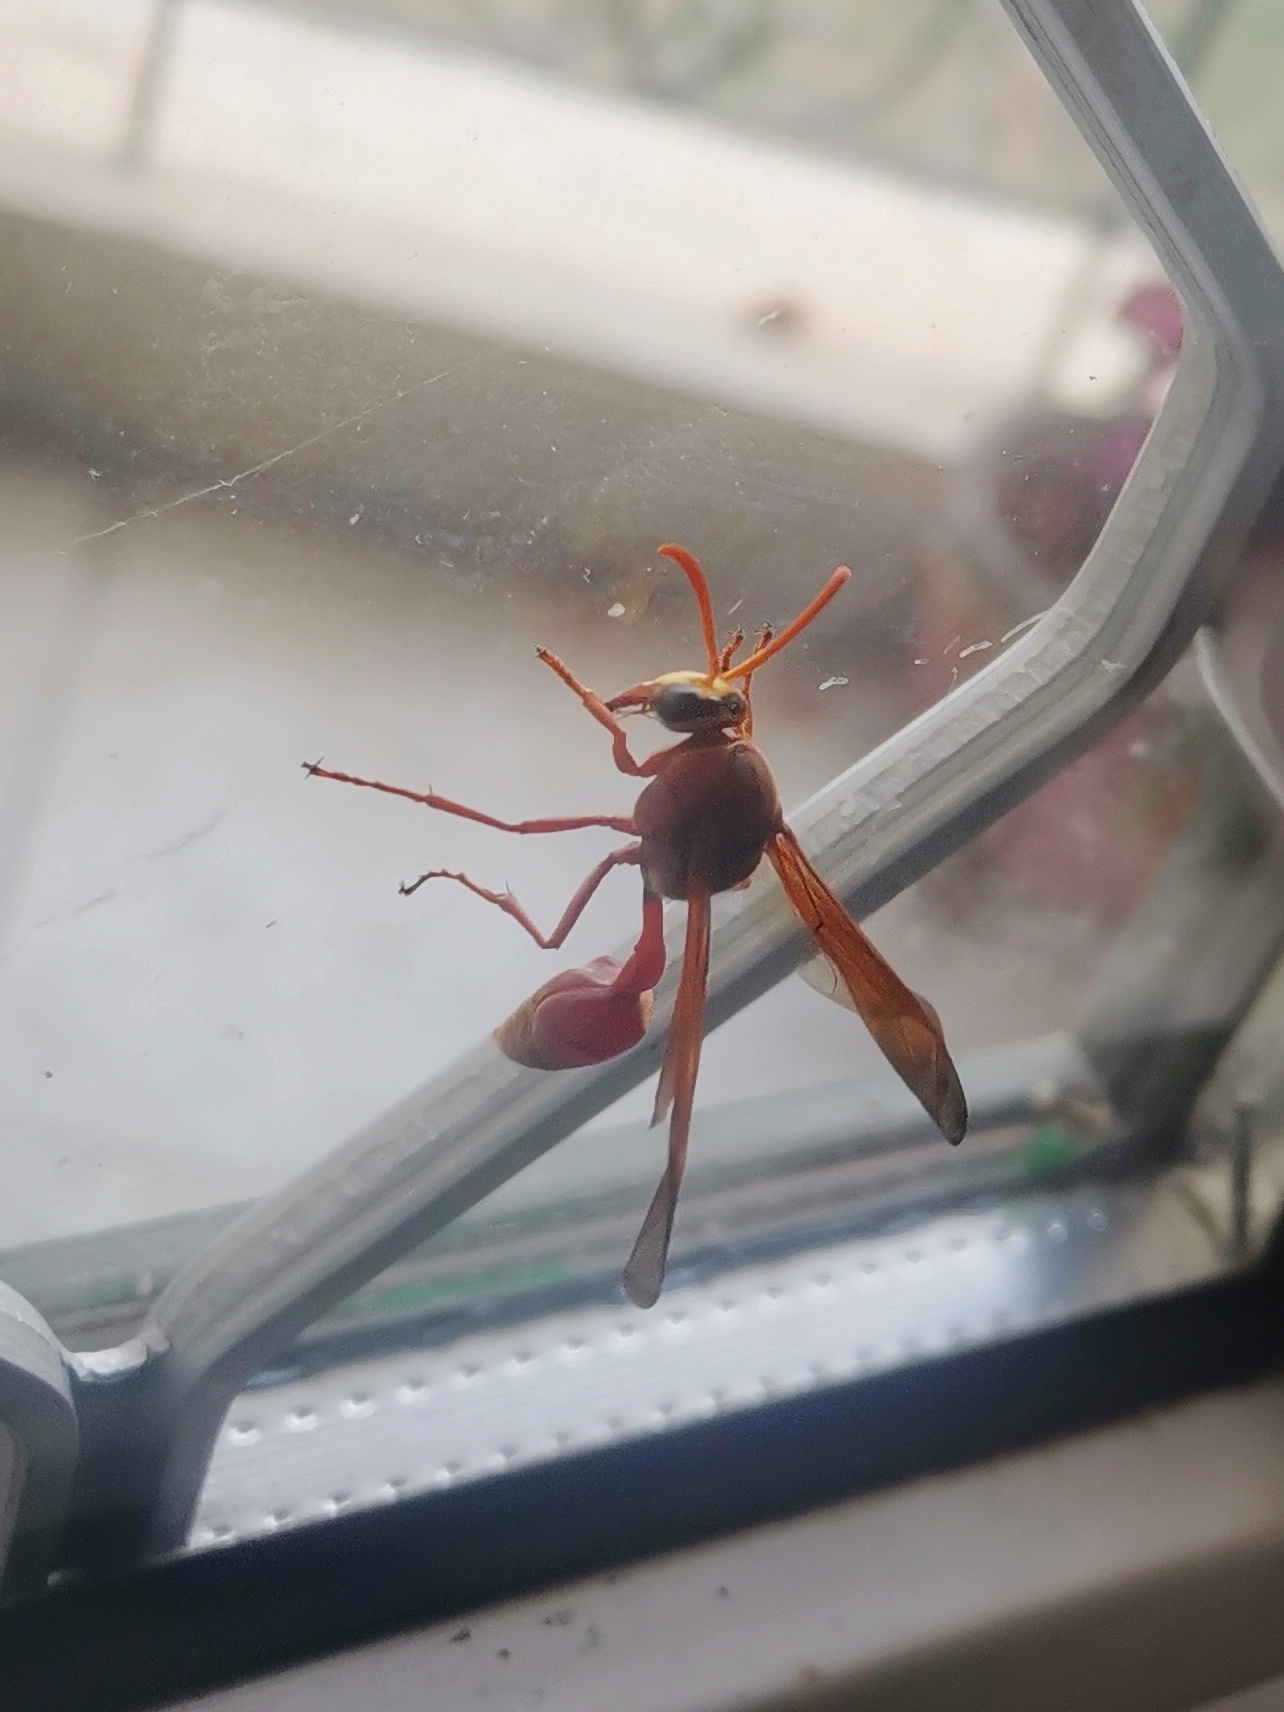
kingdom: Animalia
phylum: Arthropoda
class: Insecta
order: Hymenoptera
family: Eumenidae
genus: Delta
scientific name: Delta conoideum
